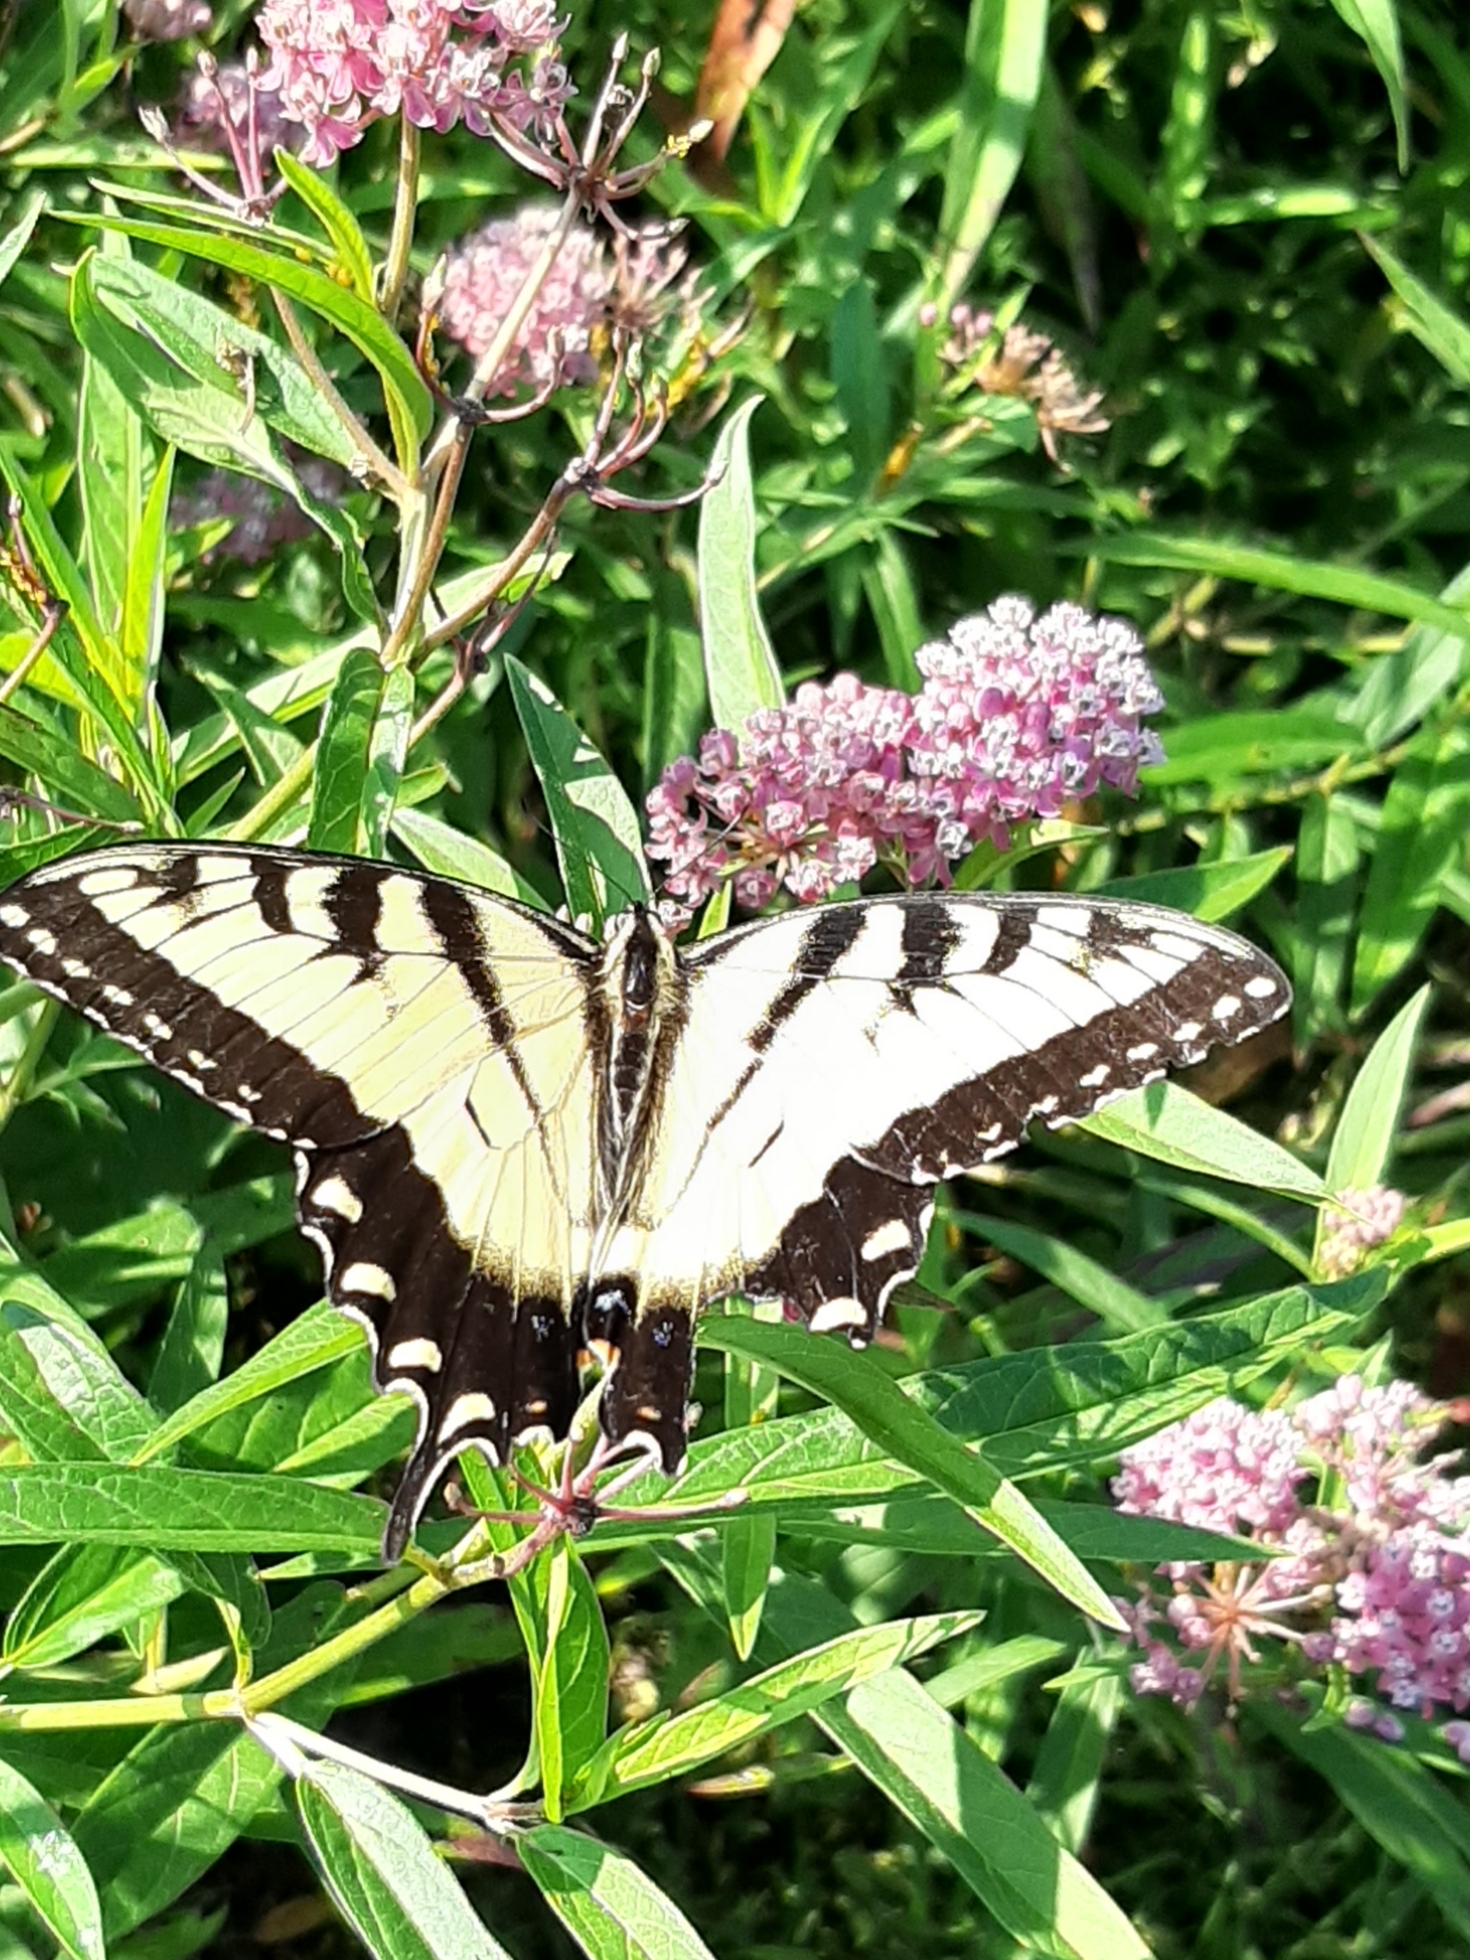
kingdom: Animalia
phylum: Arthropoda
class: Insecta
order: Lepidoptera
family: Papilionidae
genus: Papilio
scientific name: Papilio glaucus
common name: Tiger swallowtail
